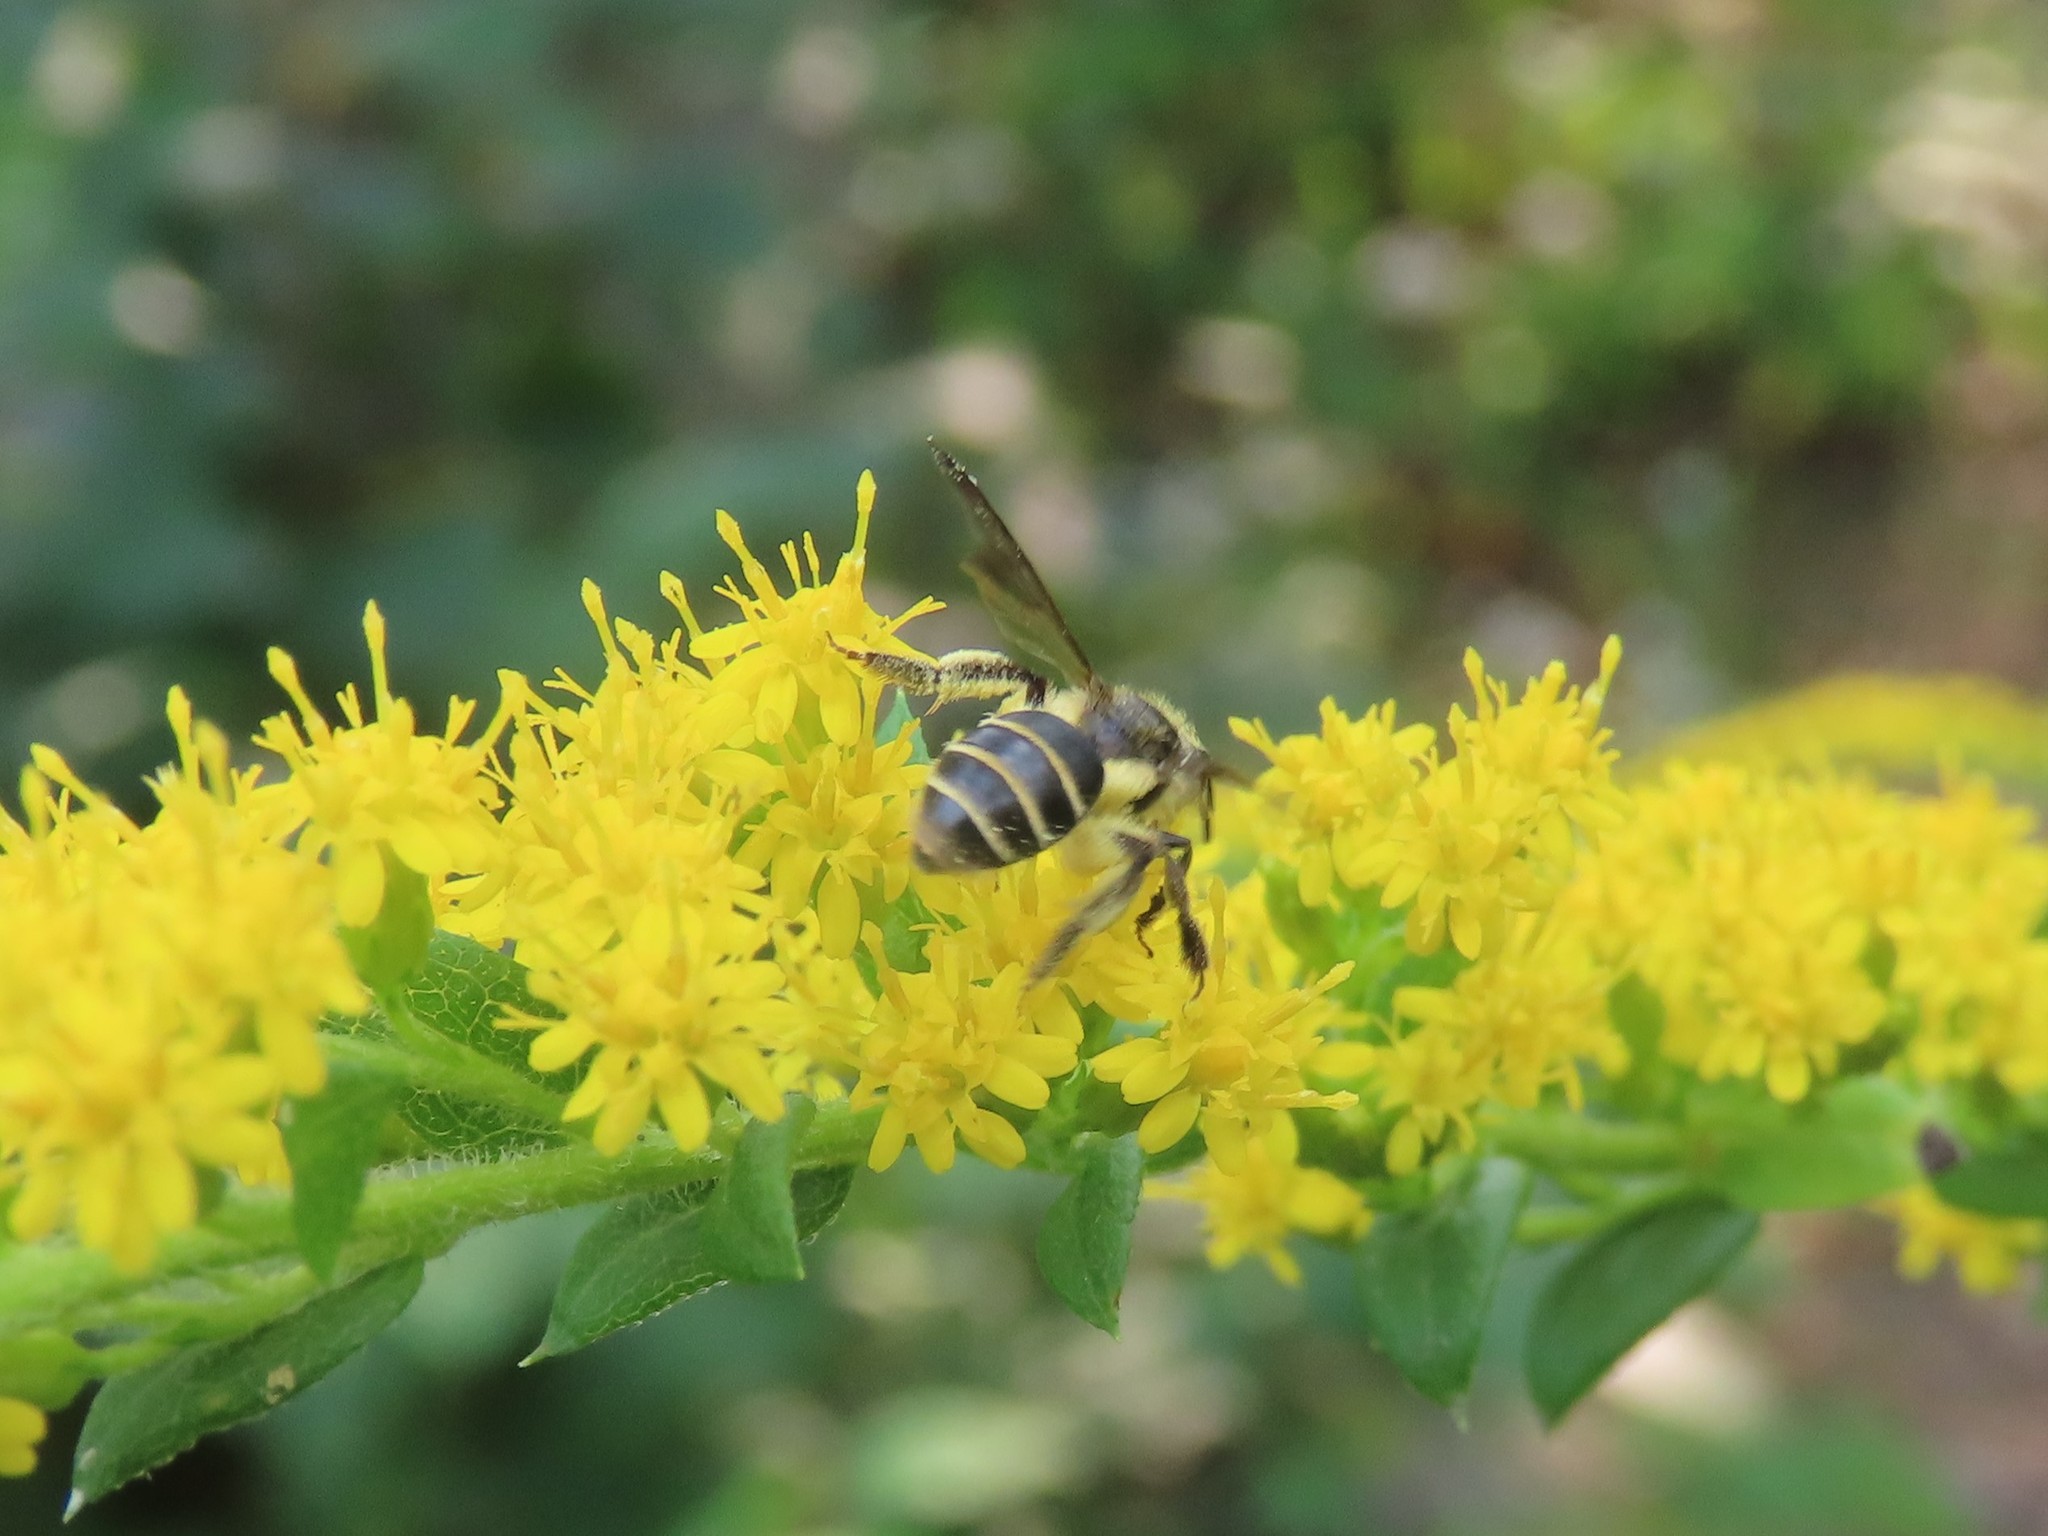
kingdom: Animalia
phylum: Arthropoda
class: Insecta
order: Hymenoptera
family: Andrenidae
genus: Andrena
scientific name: Andrena nubecula
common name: Cloudy-winged mining bee
